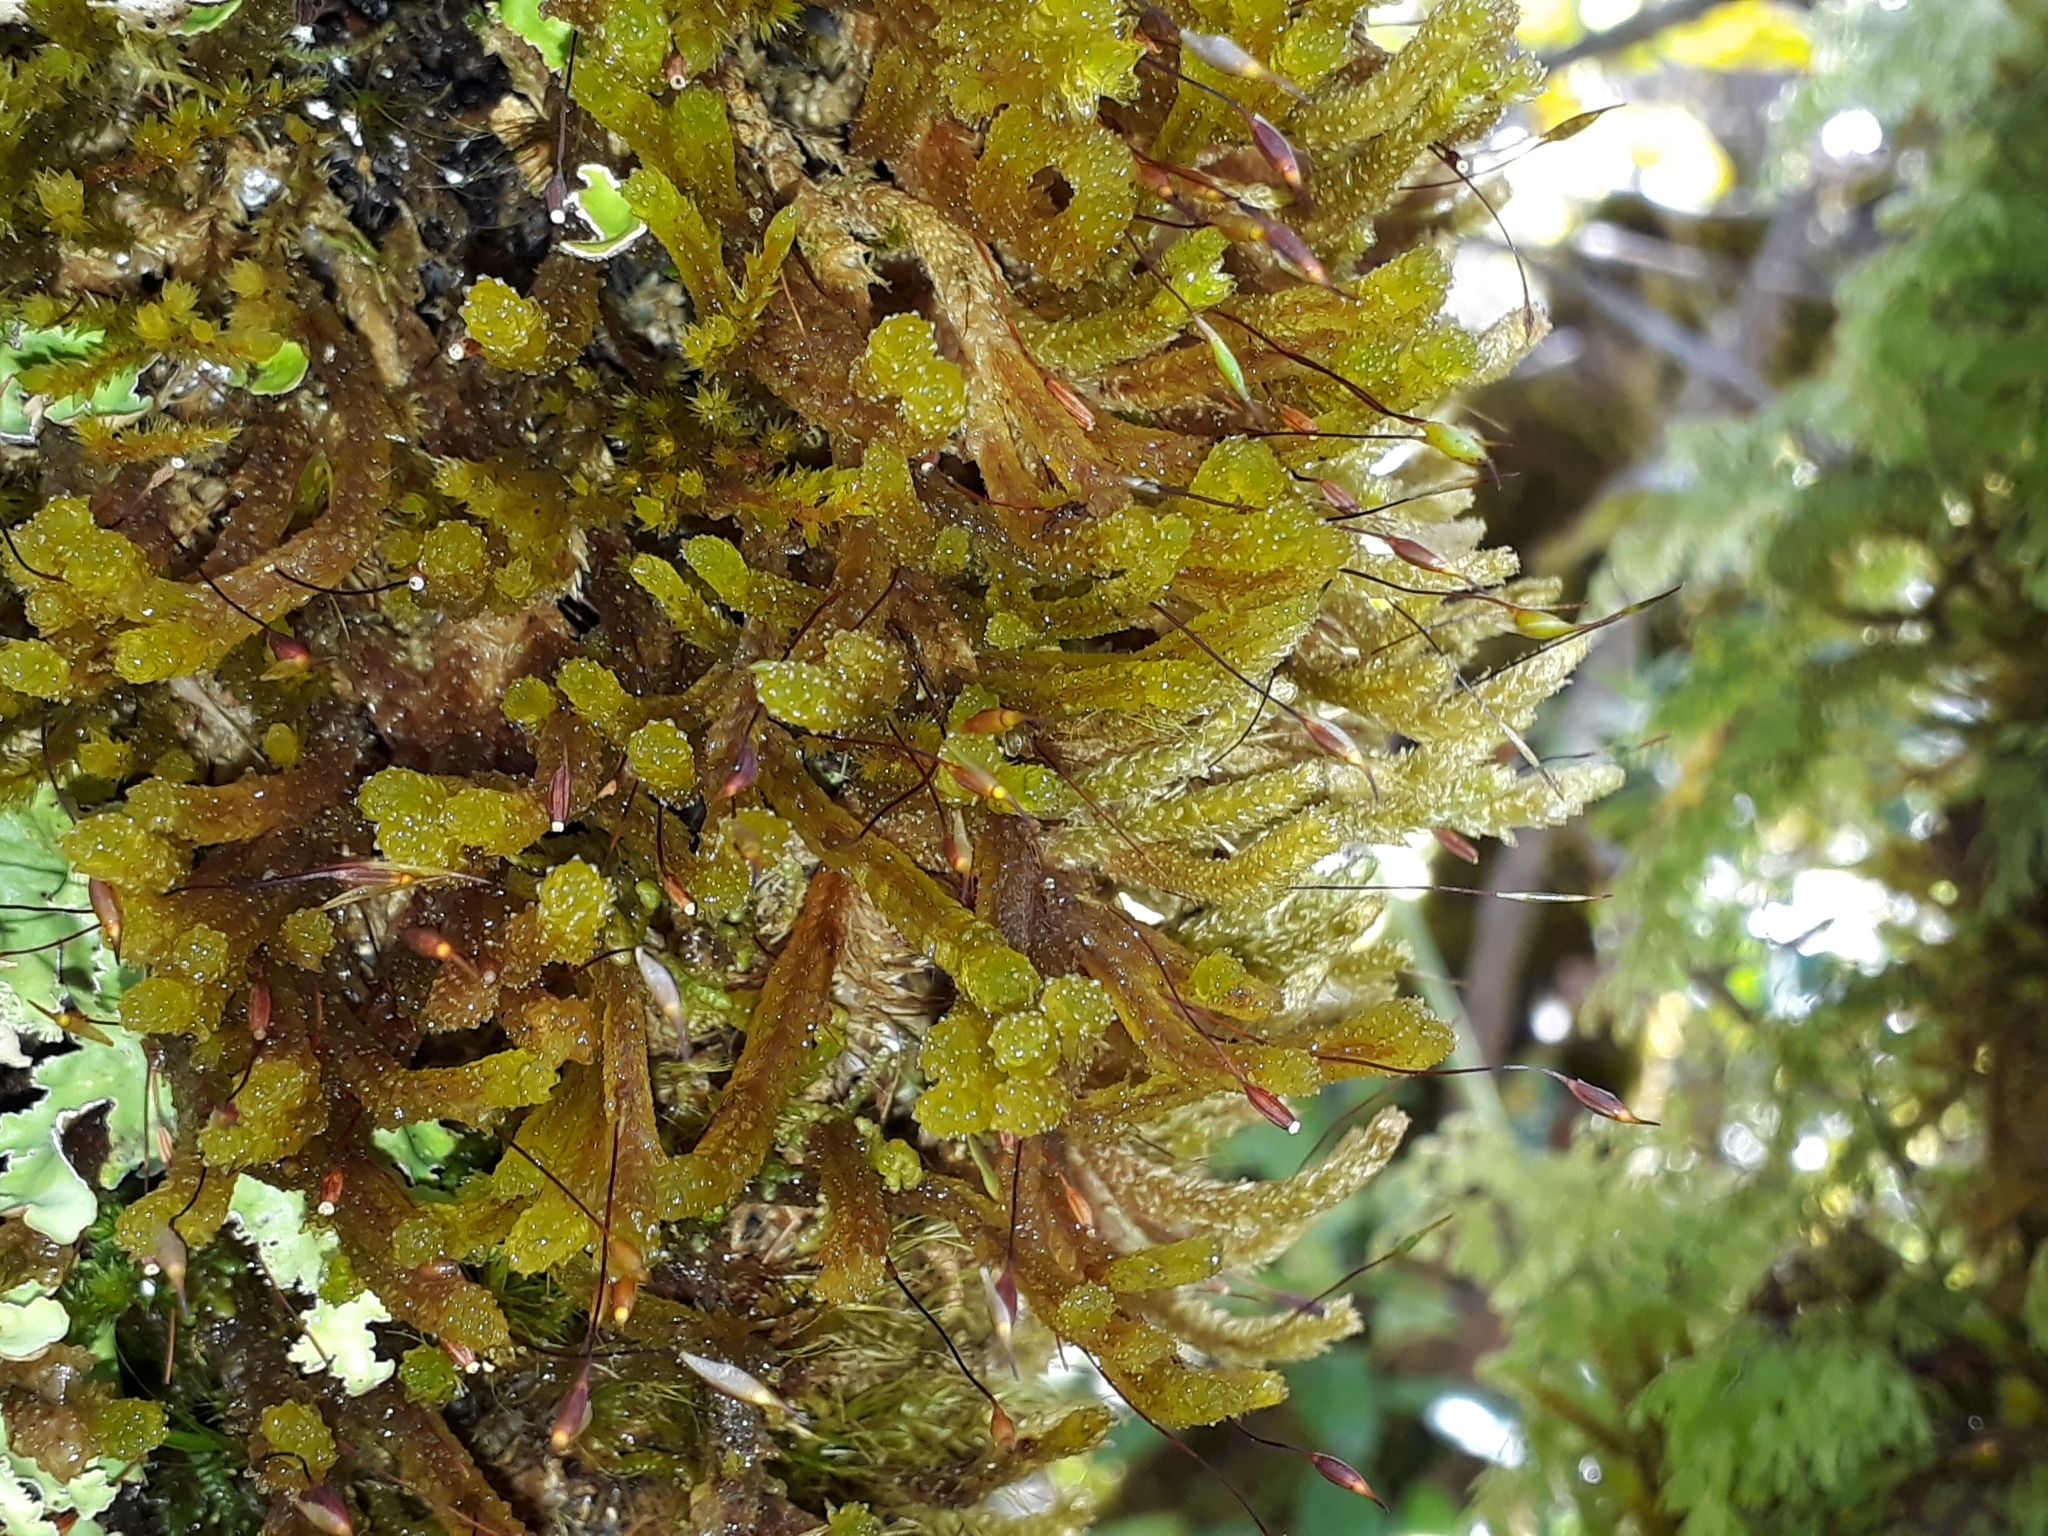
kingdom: Plantae
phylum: Bryophyta
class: Bryopsida
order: Ptychomniales
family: Ptychomniaceae
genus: Cladomnion
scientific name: Cladomnion ericoides
